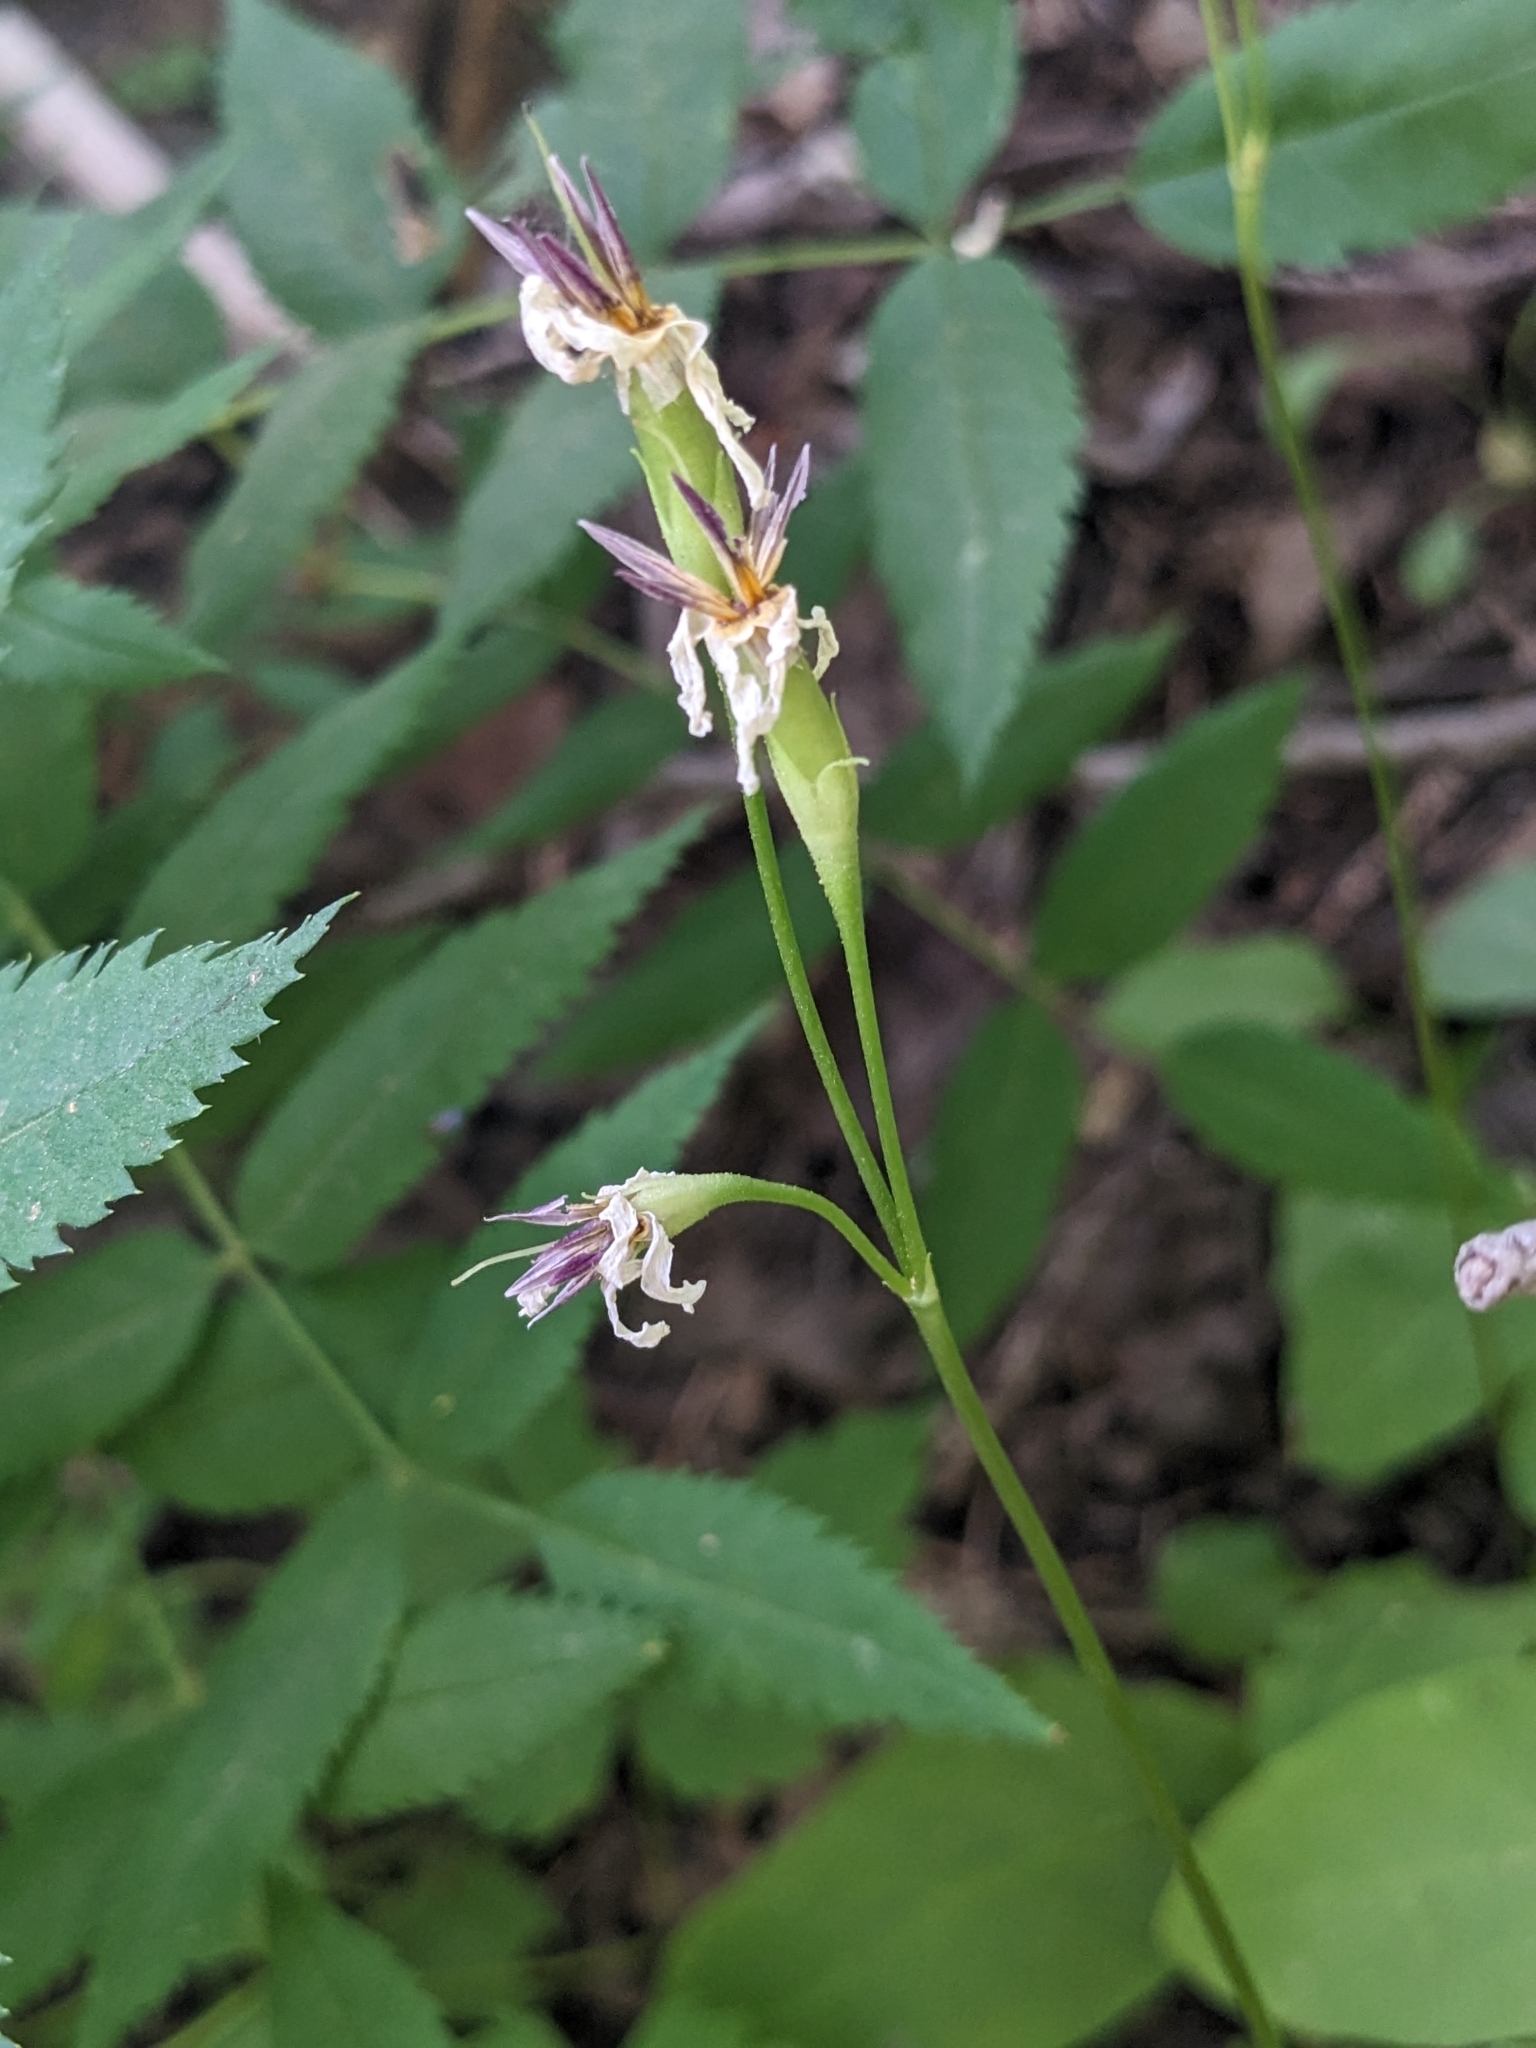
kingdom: Plantae
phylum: Tracheophyta
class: Magnoliopsida
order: Ericales
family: Primulaceae
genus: Dodecatheon
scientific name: Dodecatheon dentatum
